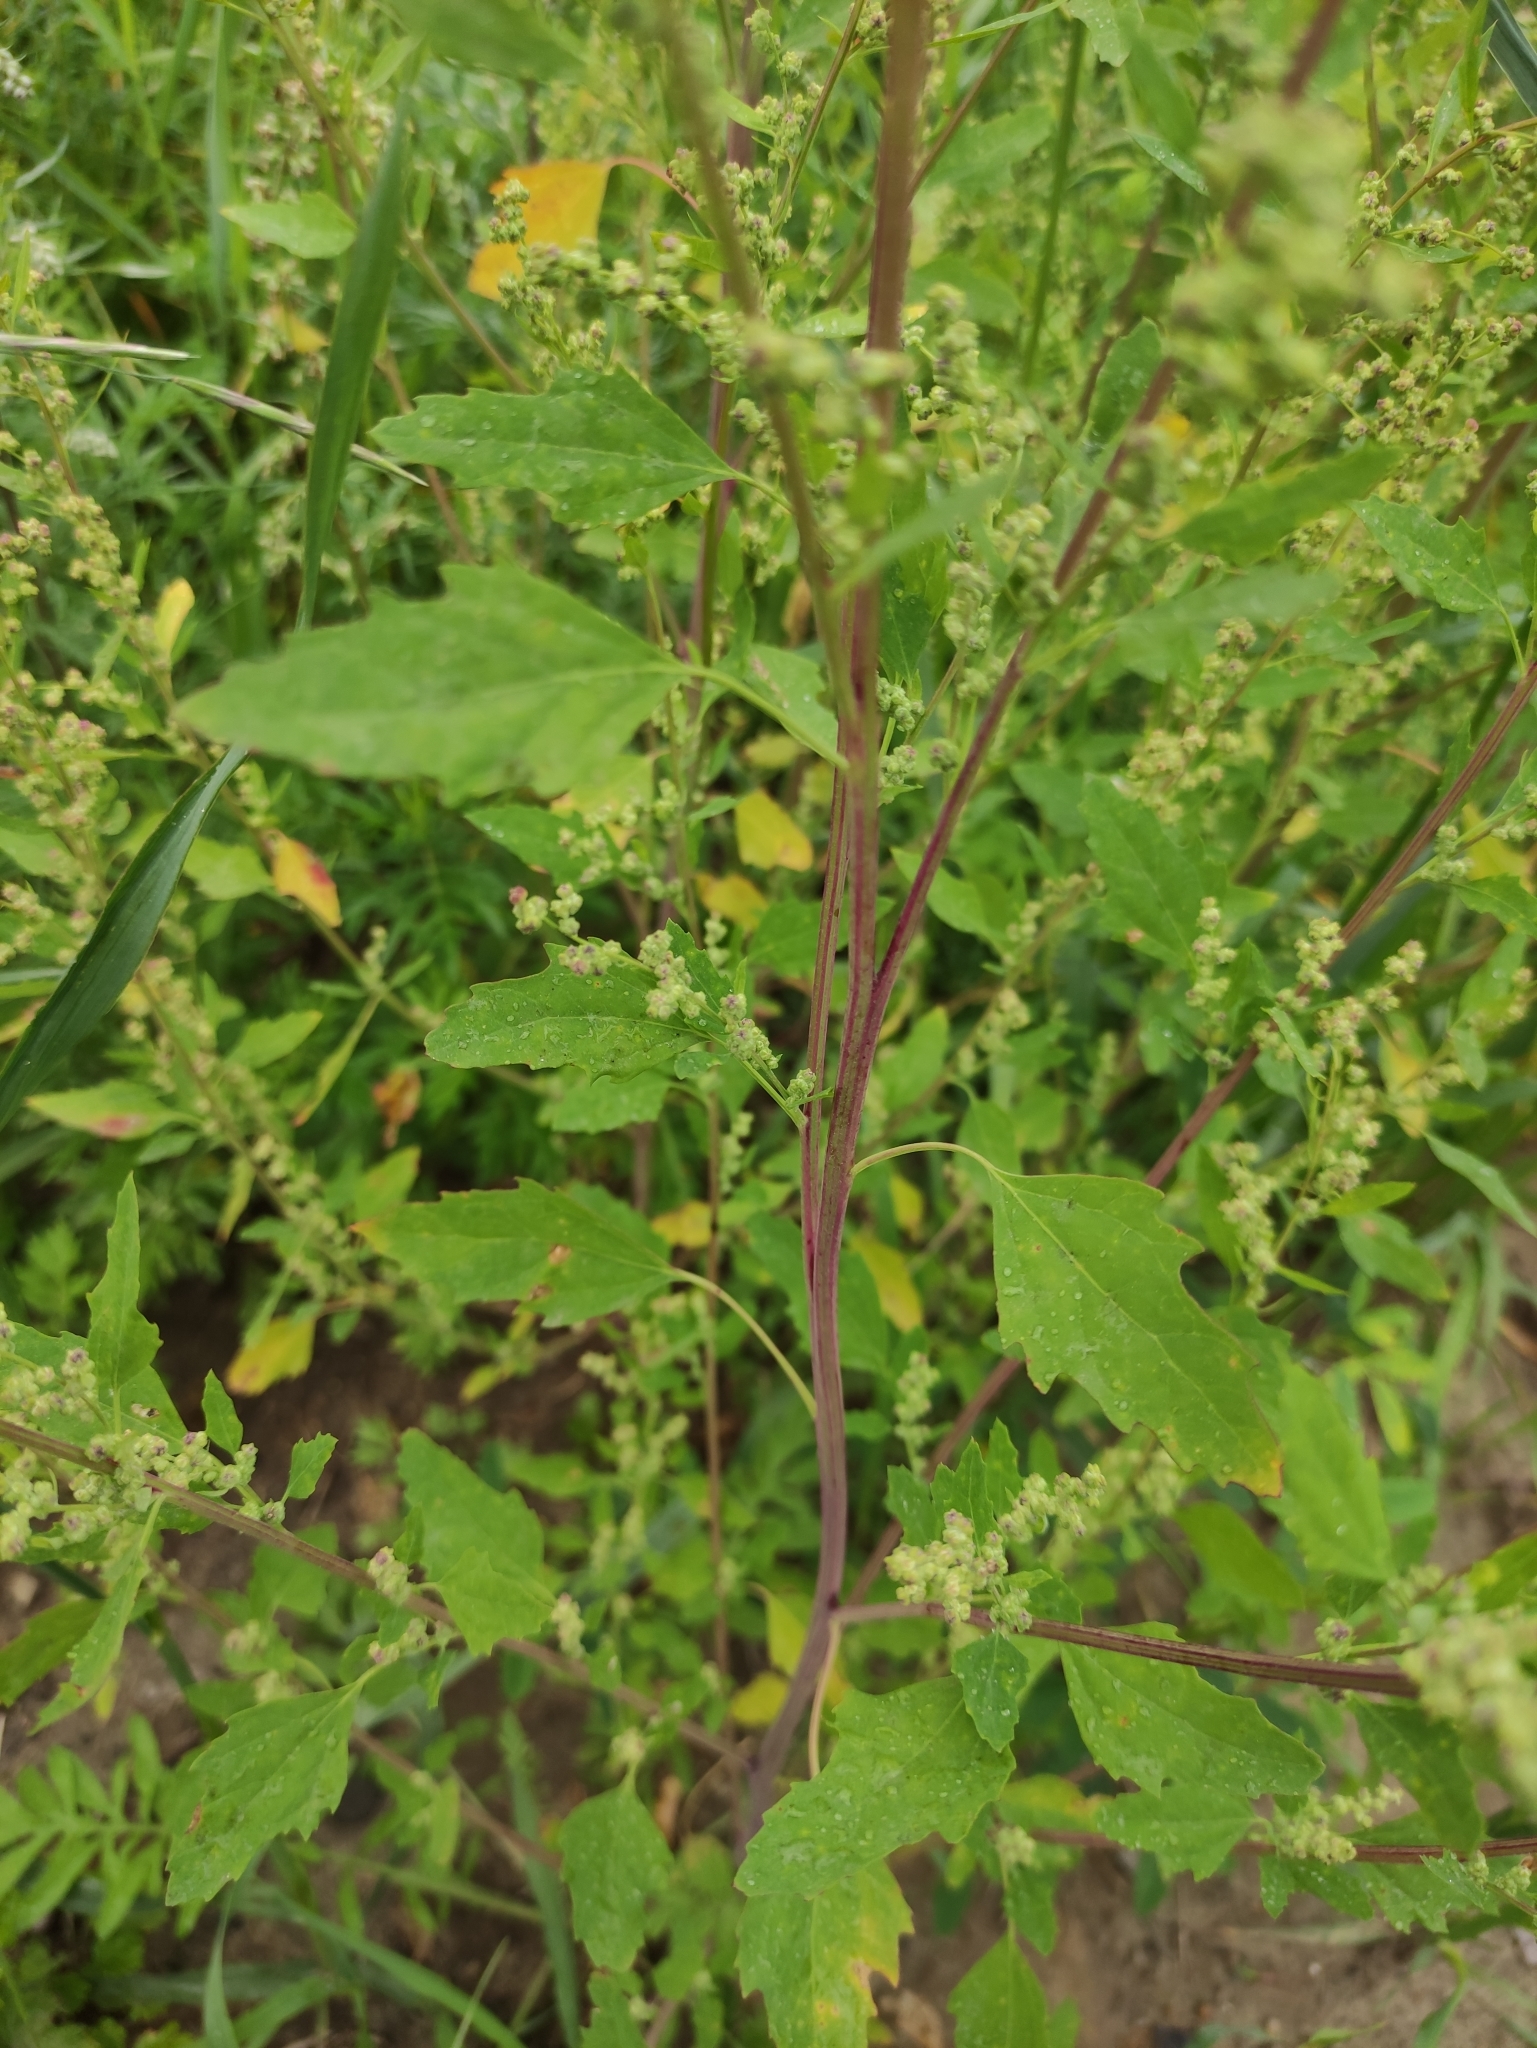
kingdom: Plantae
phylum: Tracheophyta
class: Magnoliopsida
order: Caryophyllales
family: Amaranthaceae
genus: Chenopodium
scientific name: Chenopodium album
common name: Fat-hen
